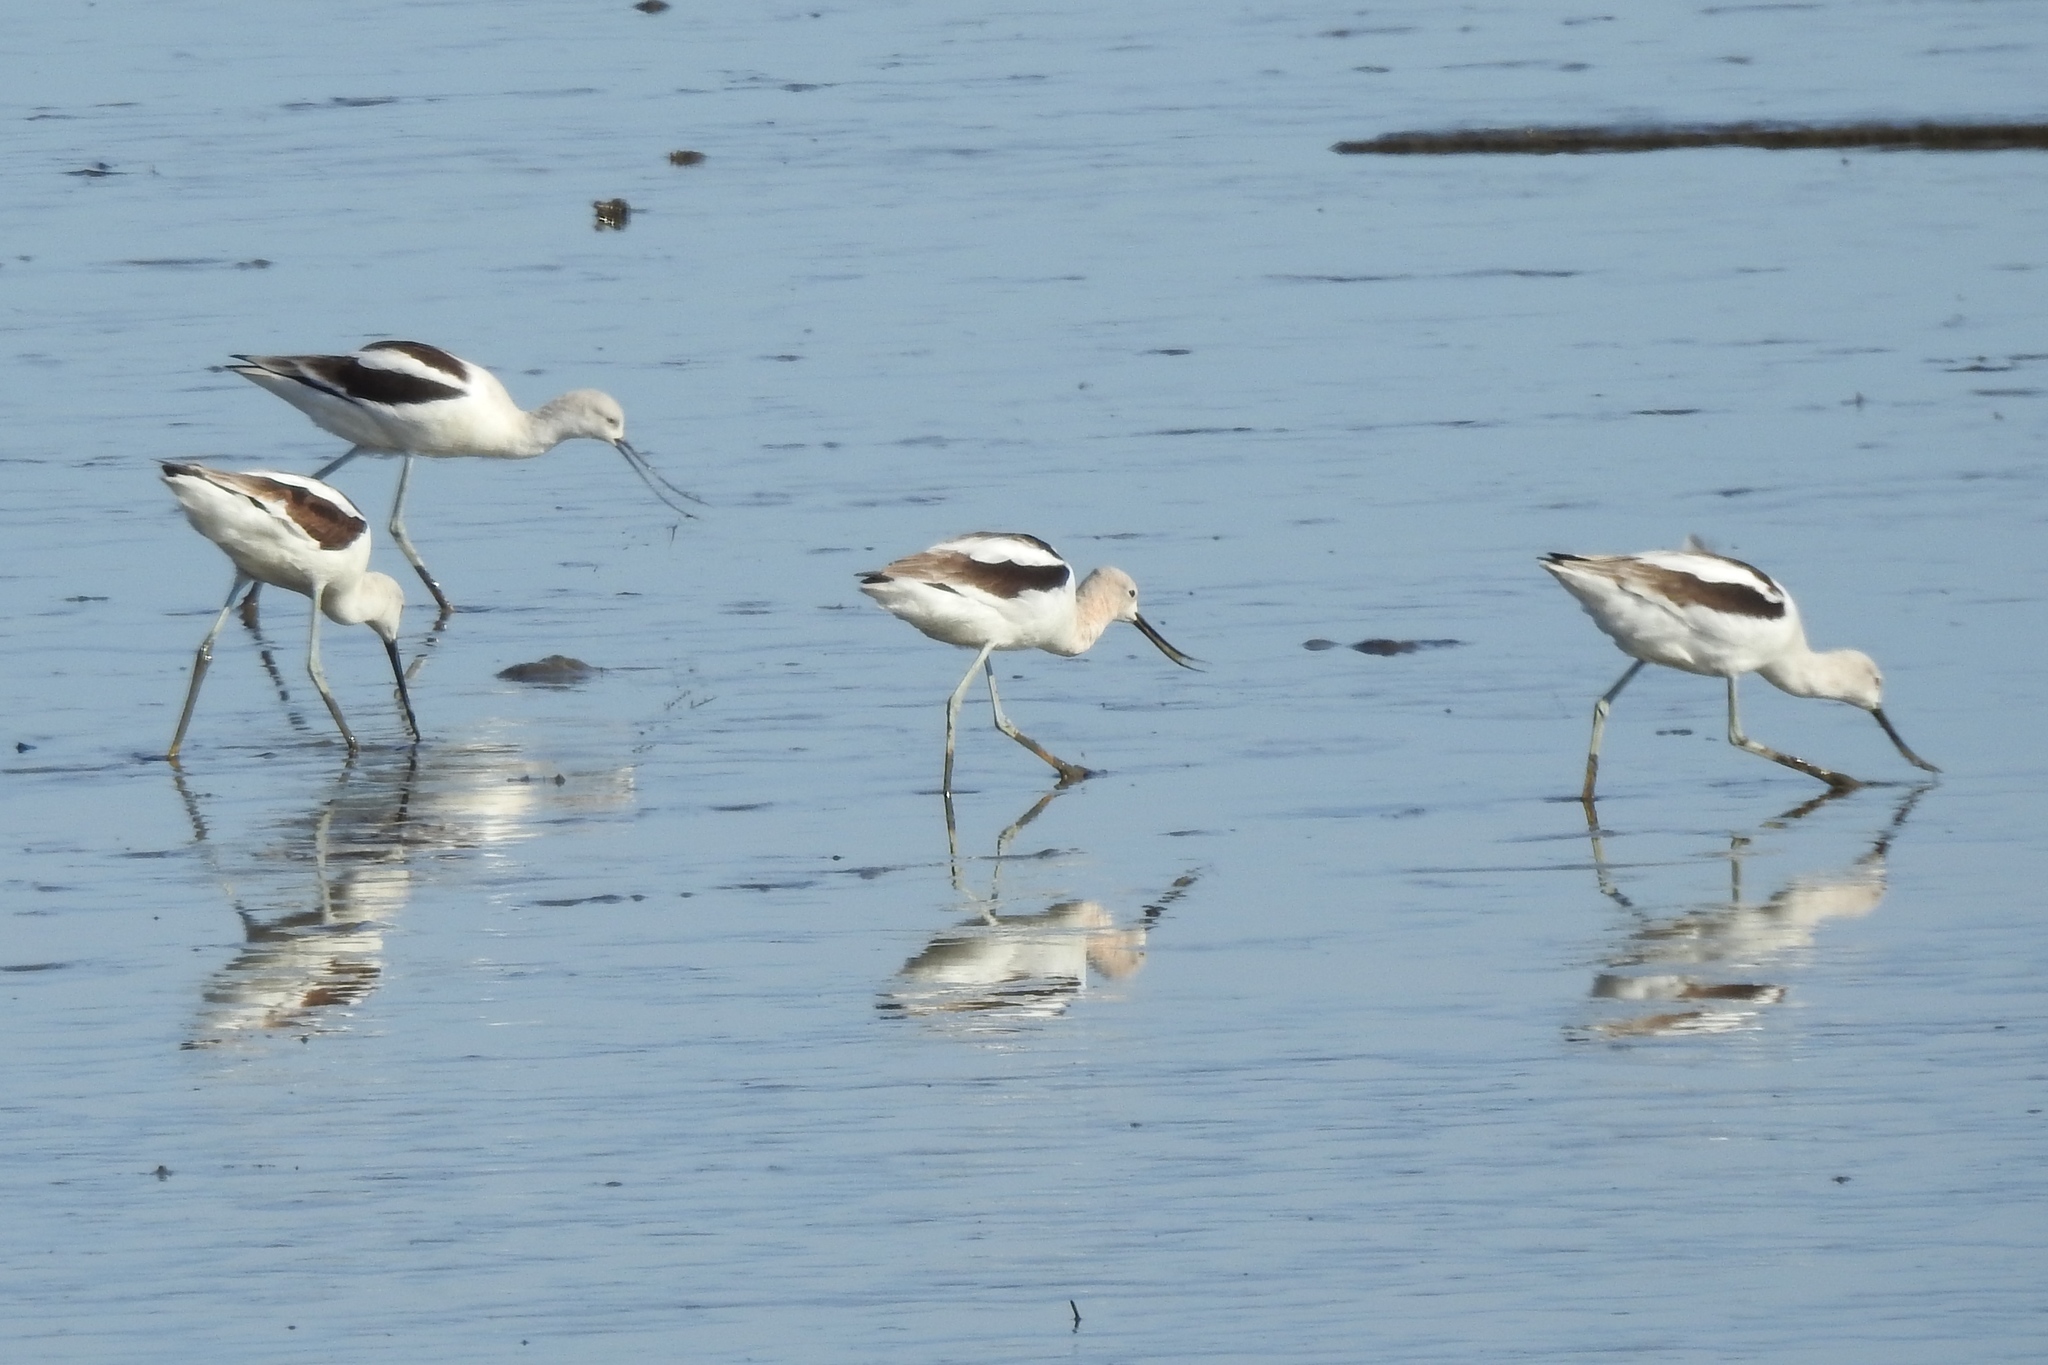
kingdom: Animalia
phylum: Chordata
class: Aves
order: Charadriiformes
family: Recurvirostridae
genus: Recurvirostra
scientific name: Recurvirostra americana
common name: American avocet
